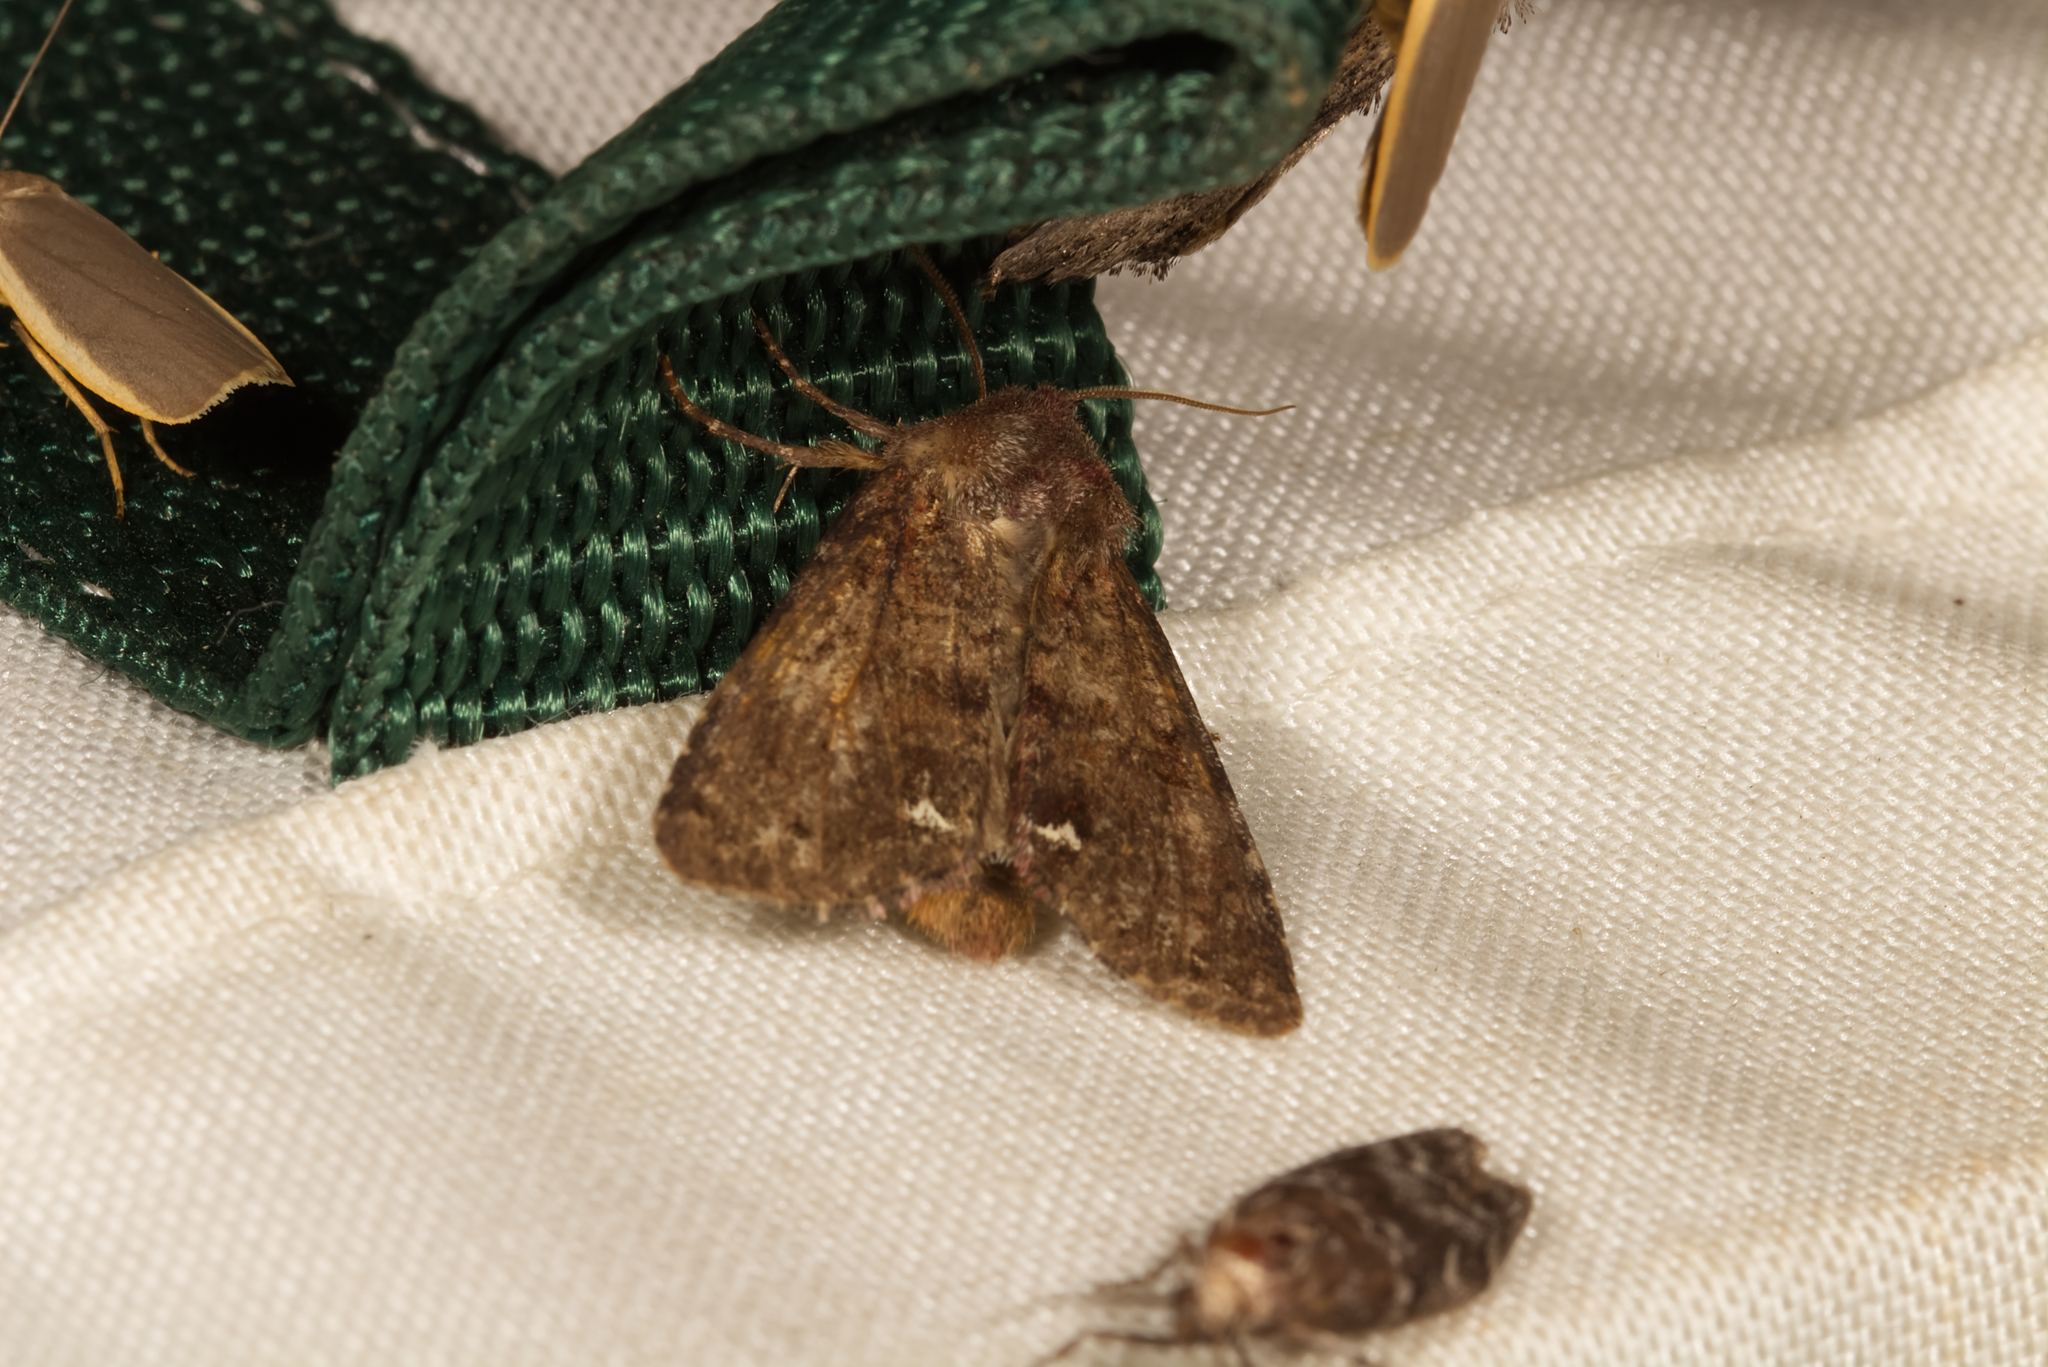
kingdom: Animalia
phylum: Arthropoda
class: Insecta
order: Lepidoptera
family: Noctuidae
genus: Ceramica
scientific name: Ceramica pisi
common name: Broom moth
